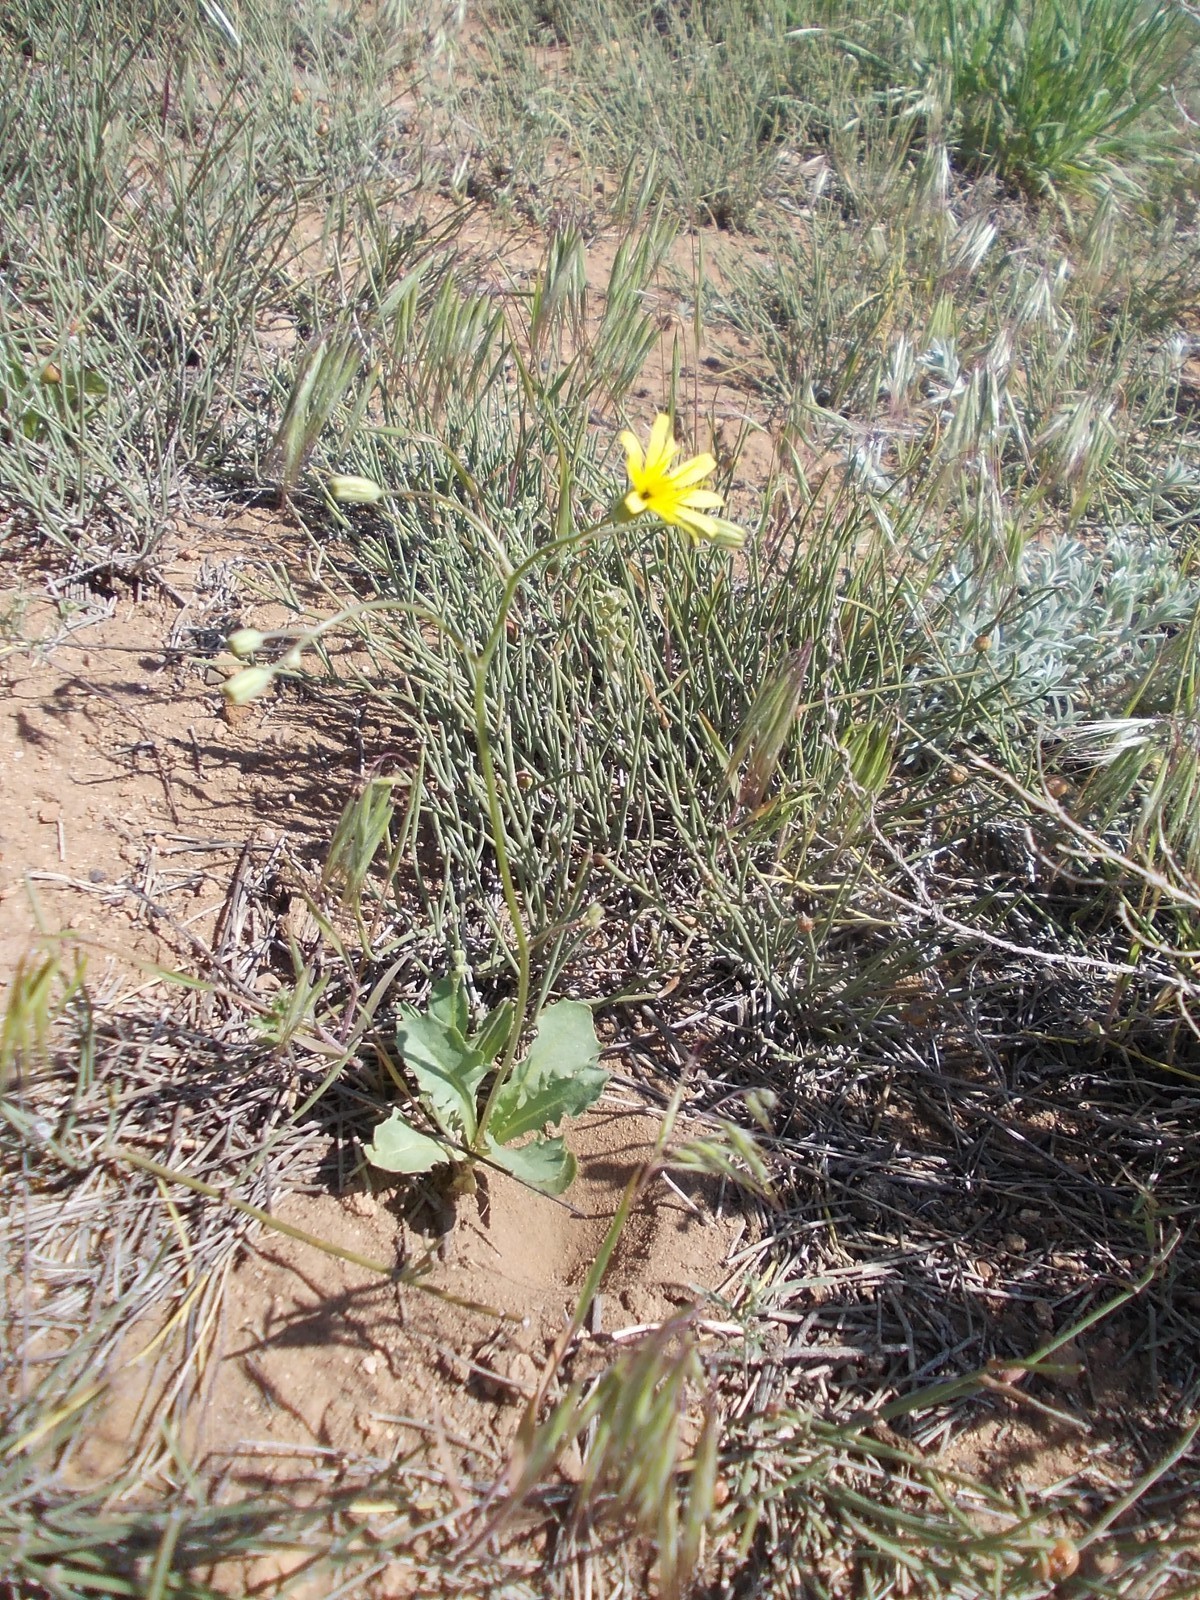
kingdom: Plantae
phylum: Tracheophyta
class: Magnoliopsida
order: Asterales
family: Asteraceae
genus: Crepis
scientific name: Crepis sancta
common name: Hawk's-beard
